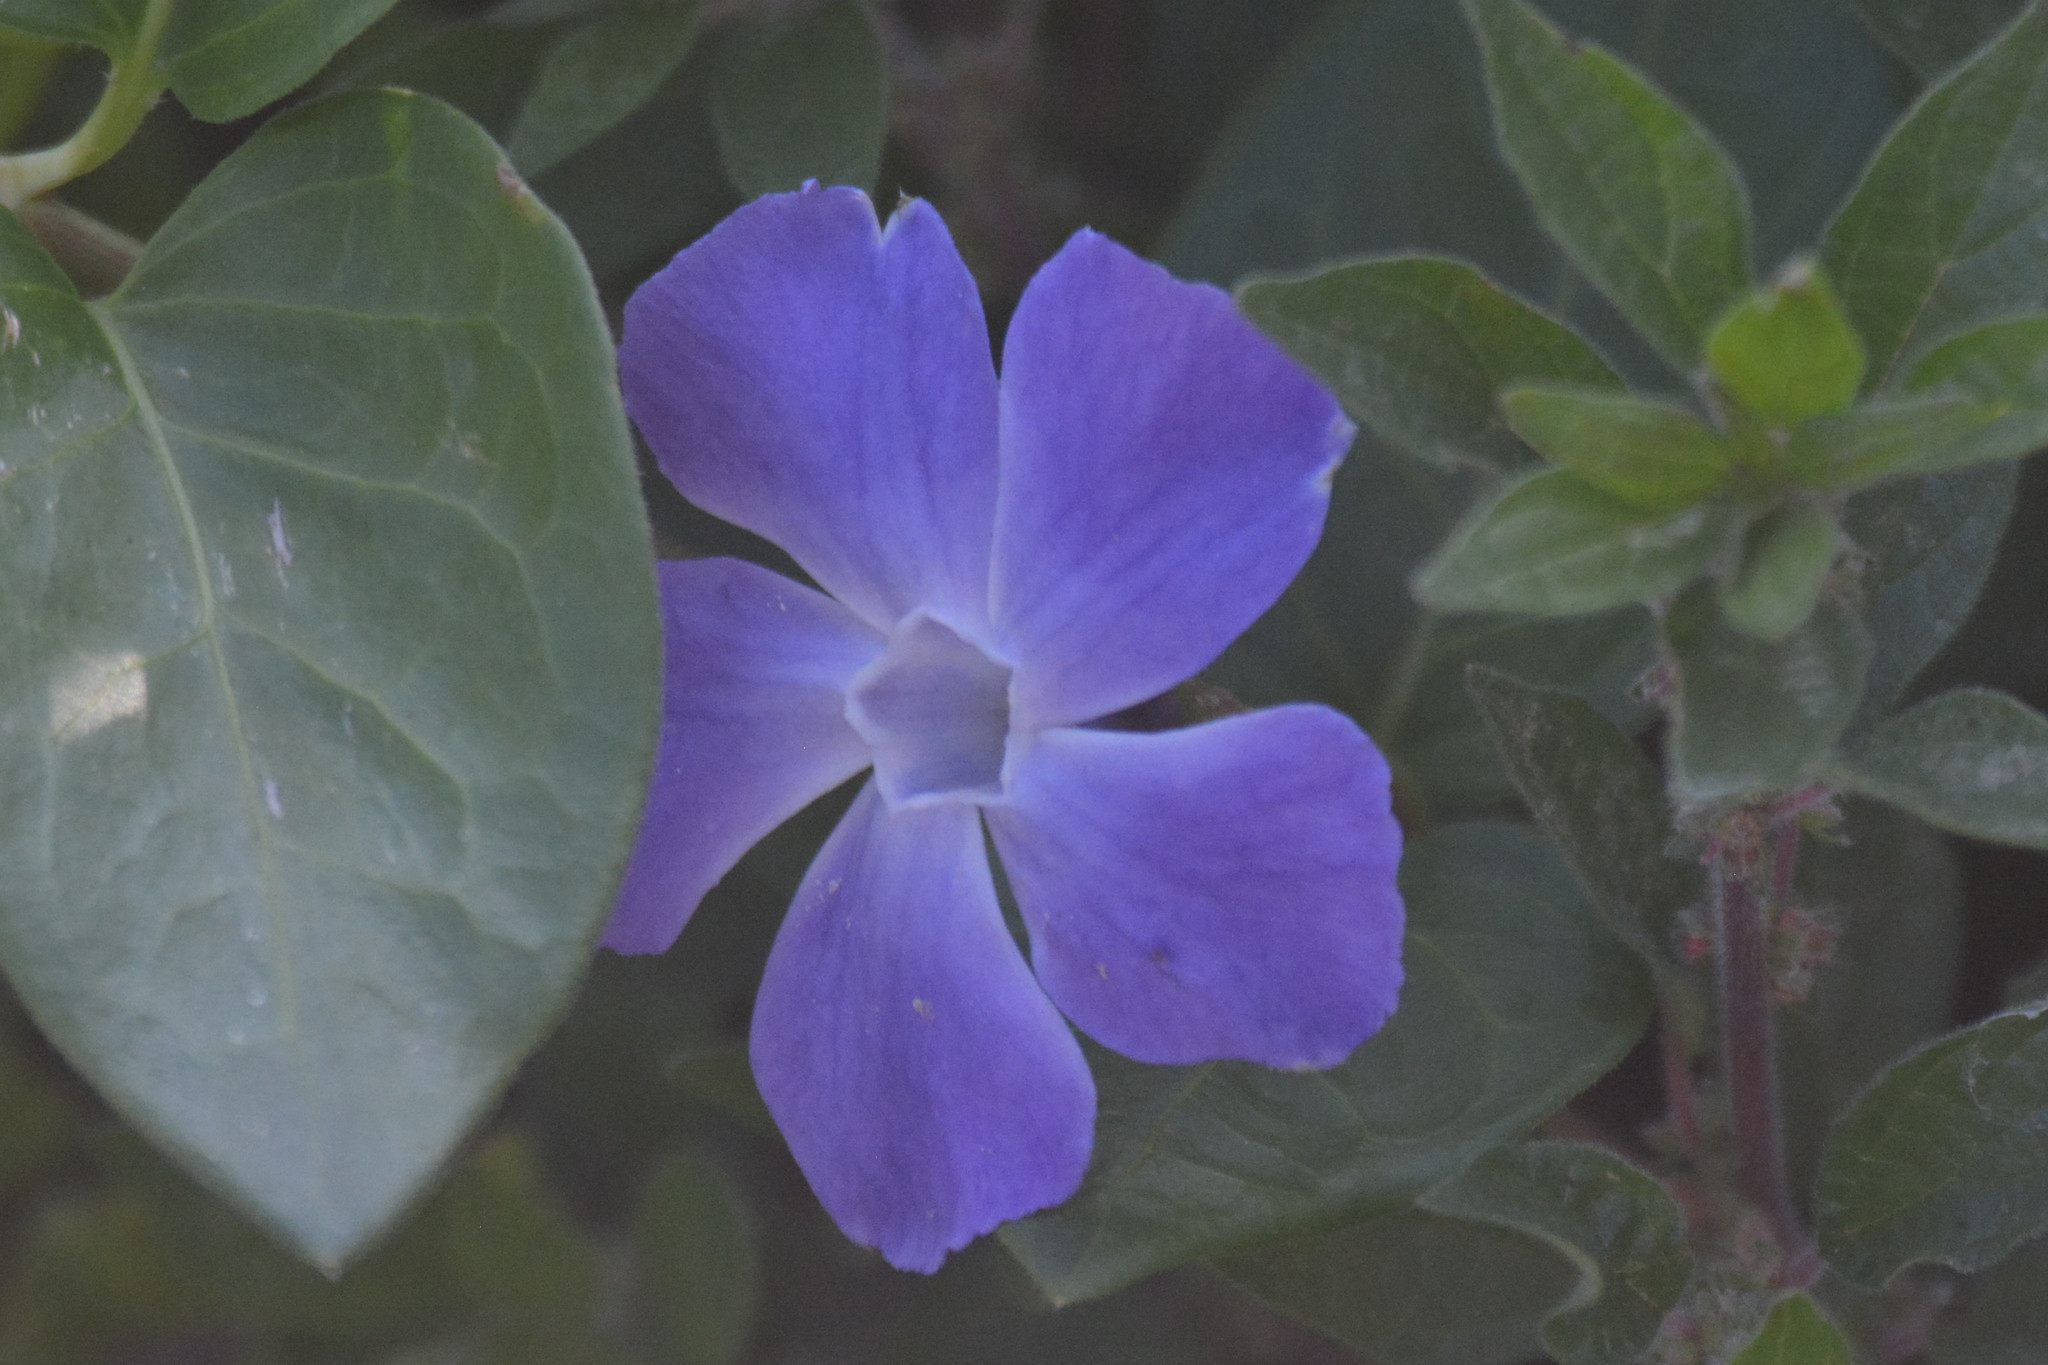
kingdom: Plantae
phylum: Tracheophyta
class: Magnoliopsida
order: Gentianales
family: Apocynaceae
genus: Vinca
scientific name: Vinca major
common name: Greater periwinkle
